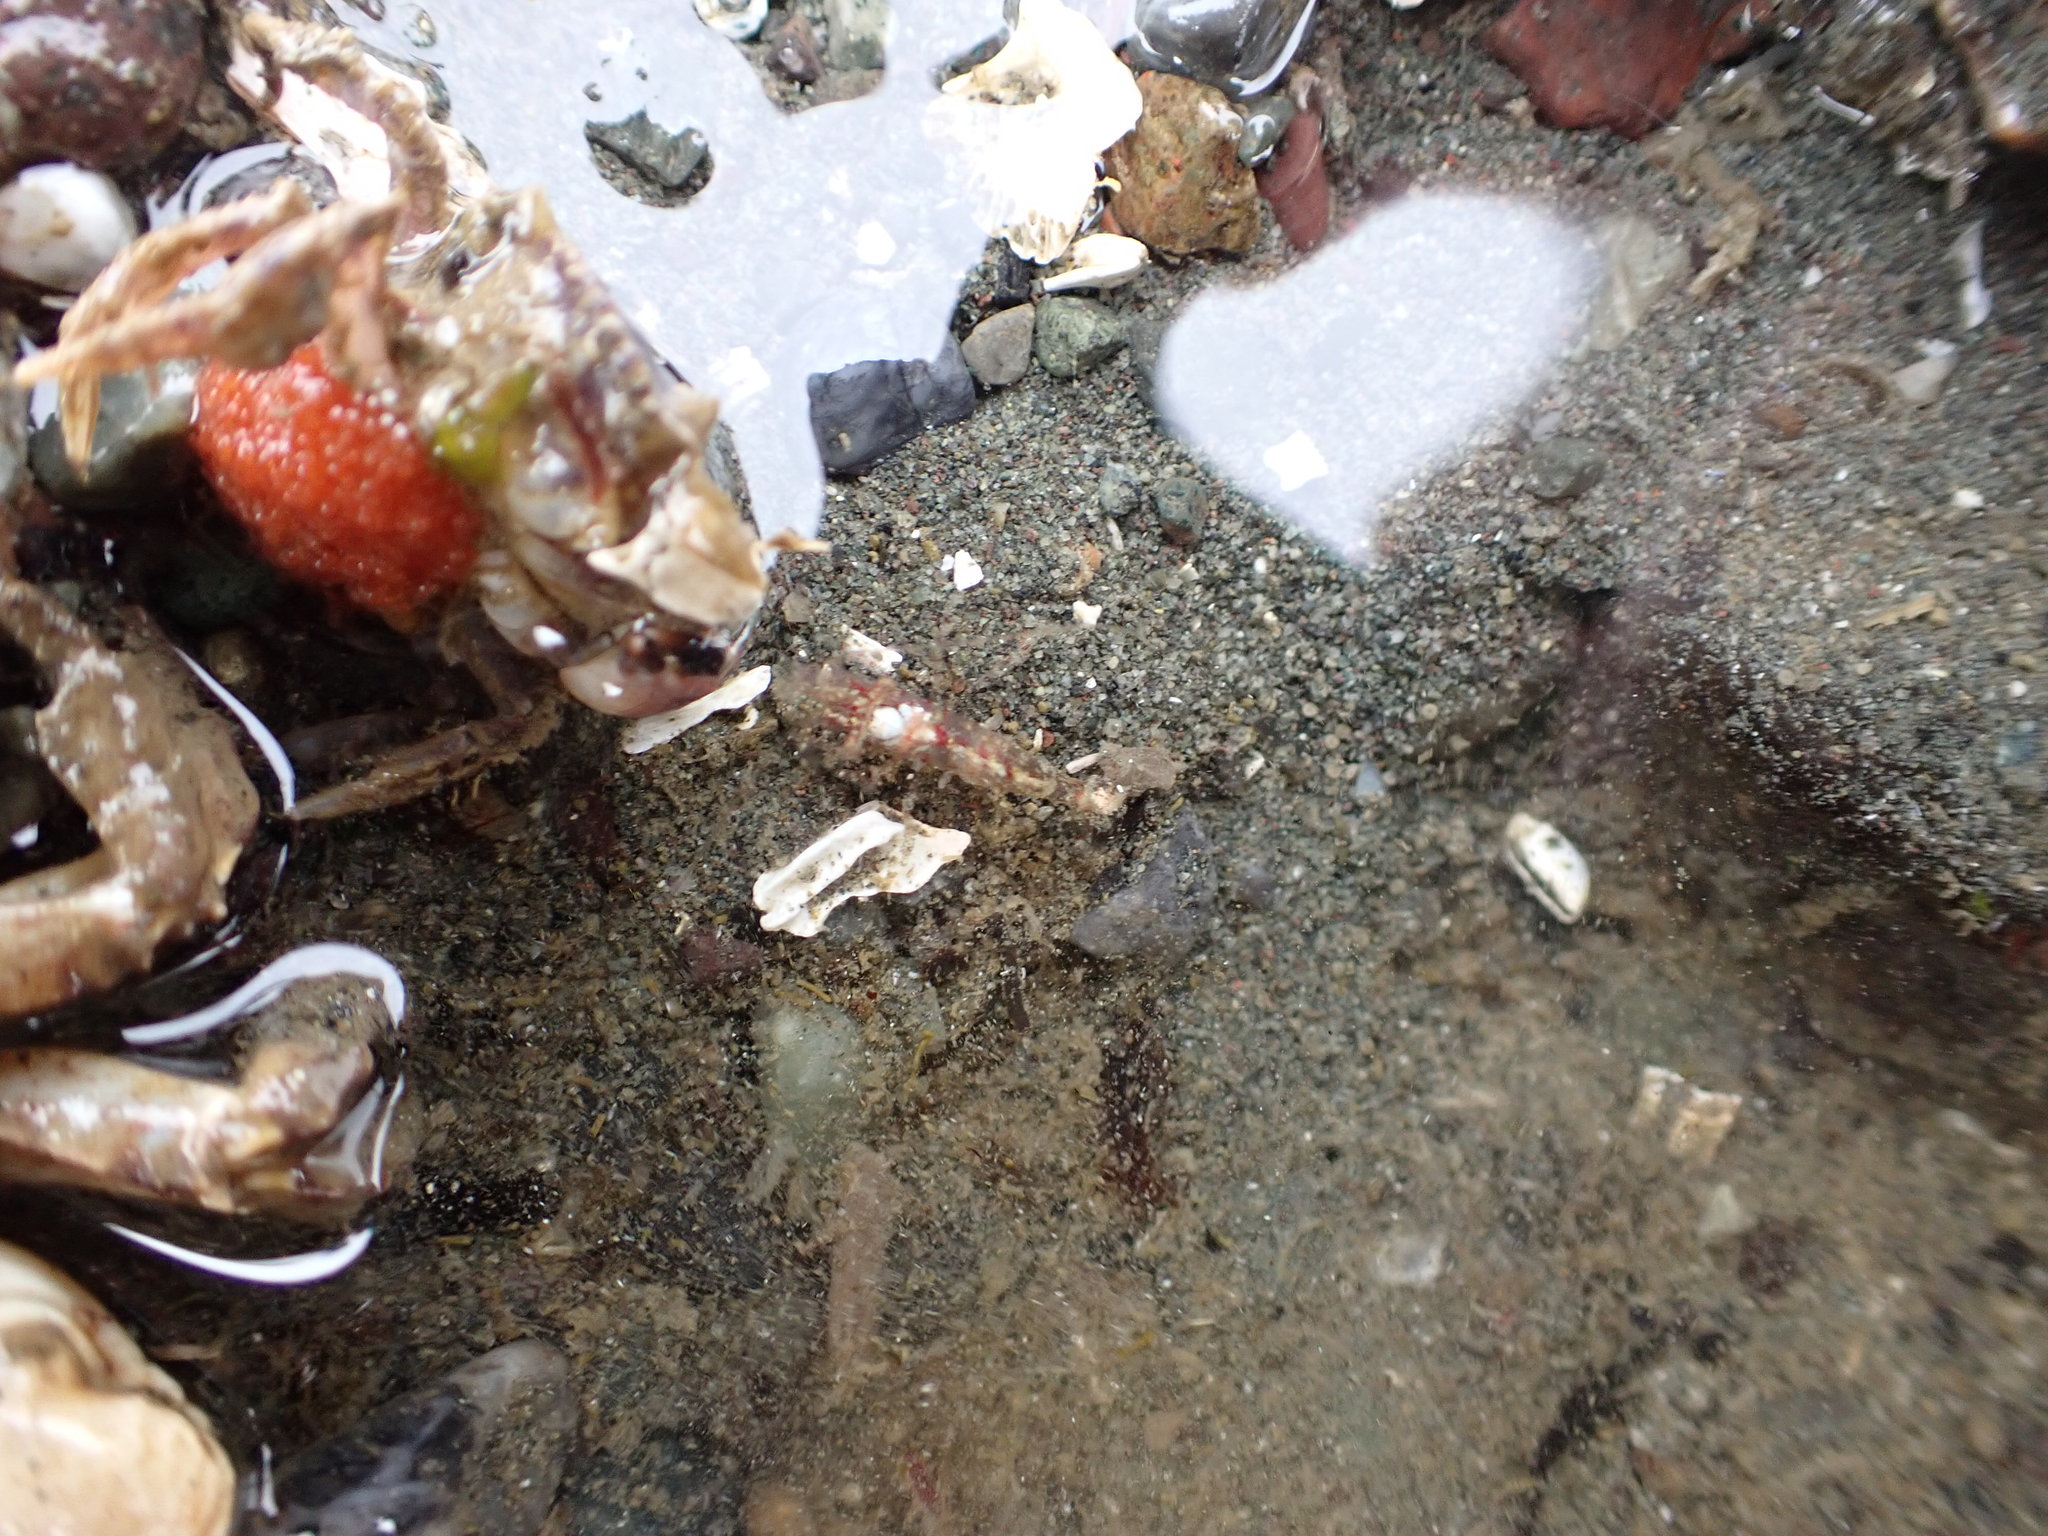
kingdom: Animalia
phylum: Arthropoda
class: Malacostraca
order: Decapoda
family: Thoridae
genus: Heptacarpus
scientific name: Heptacarpus pugettensis
